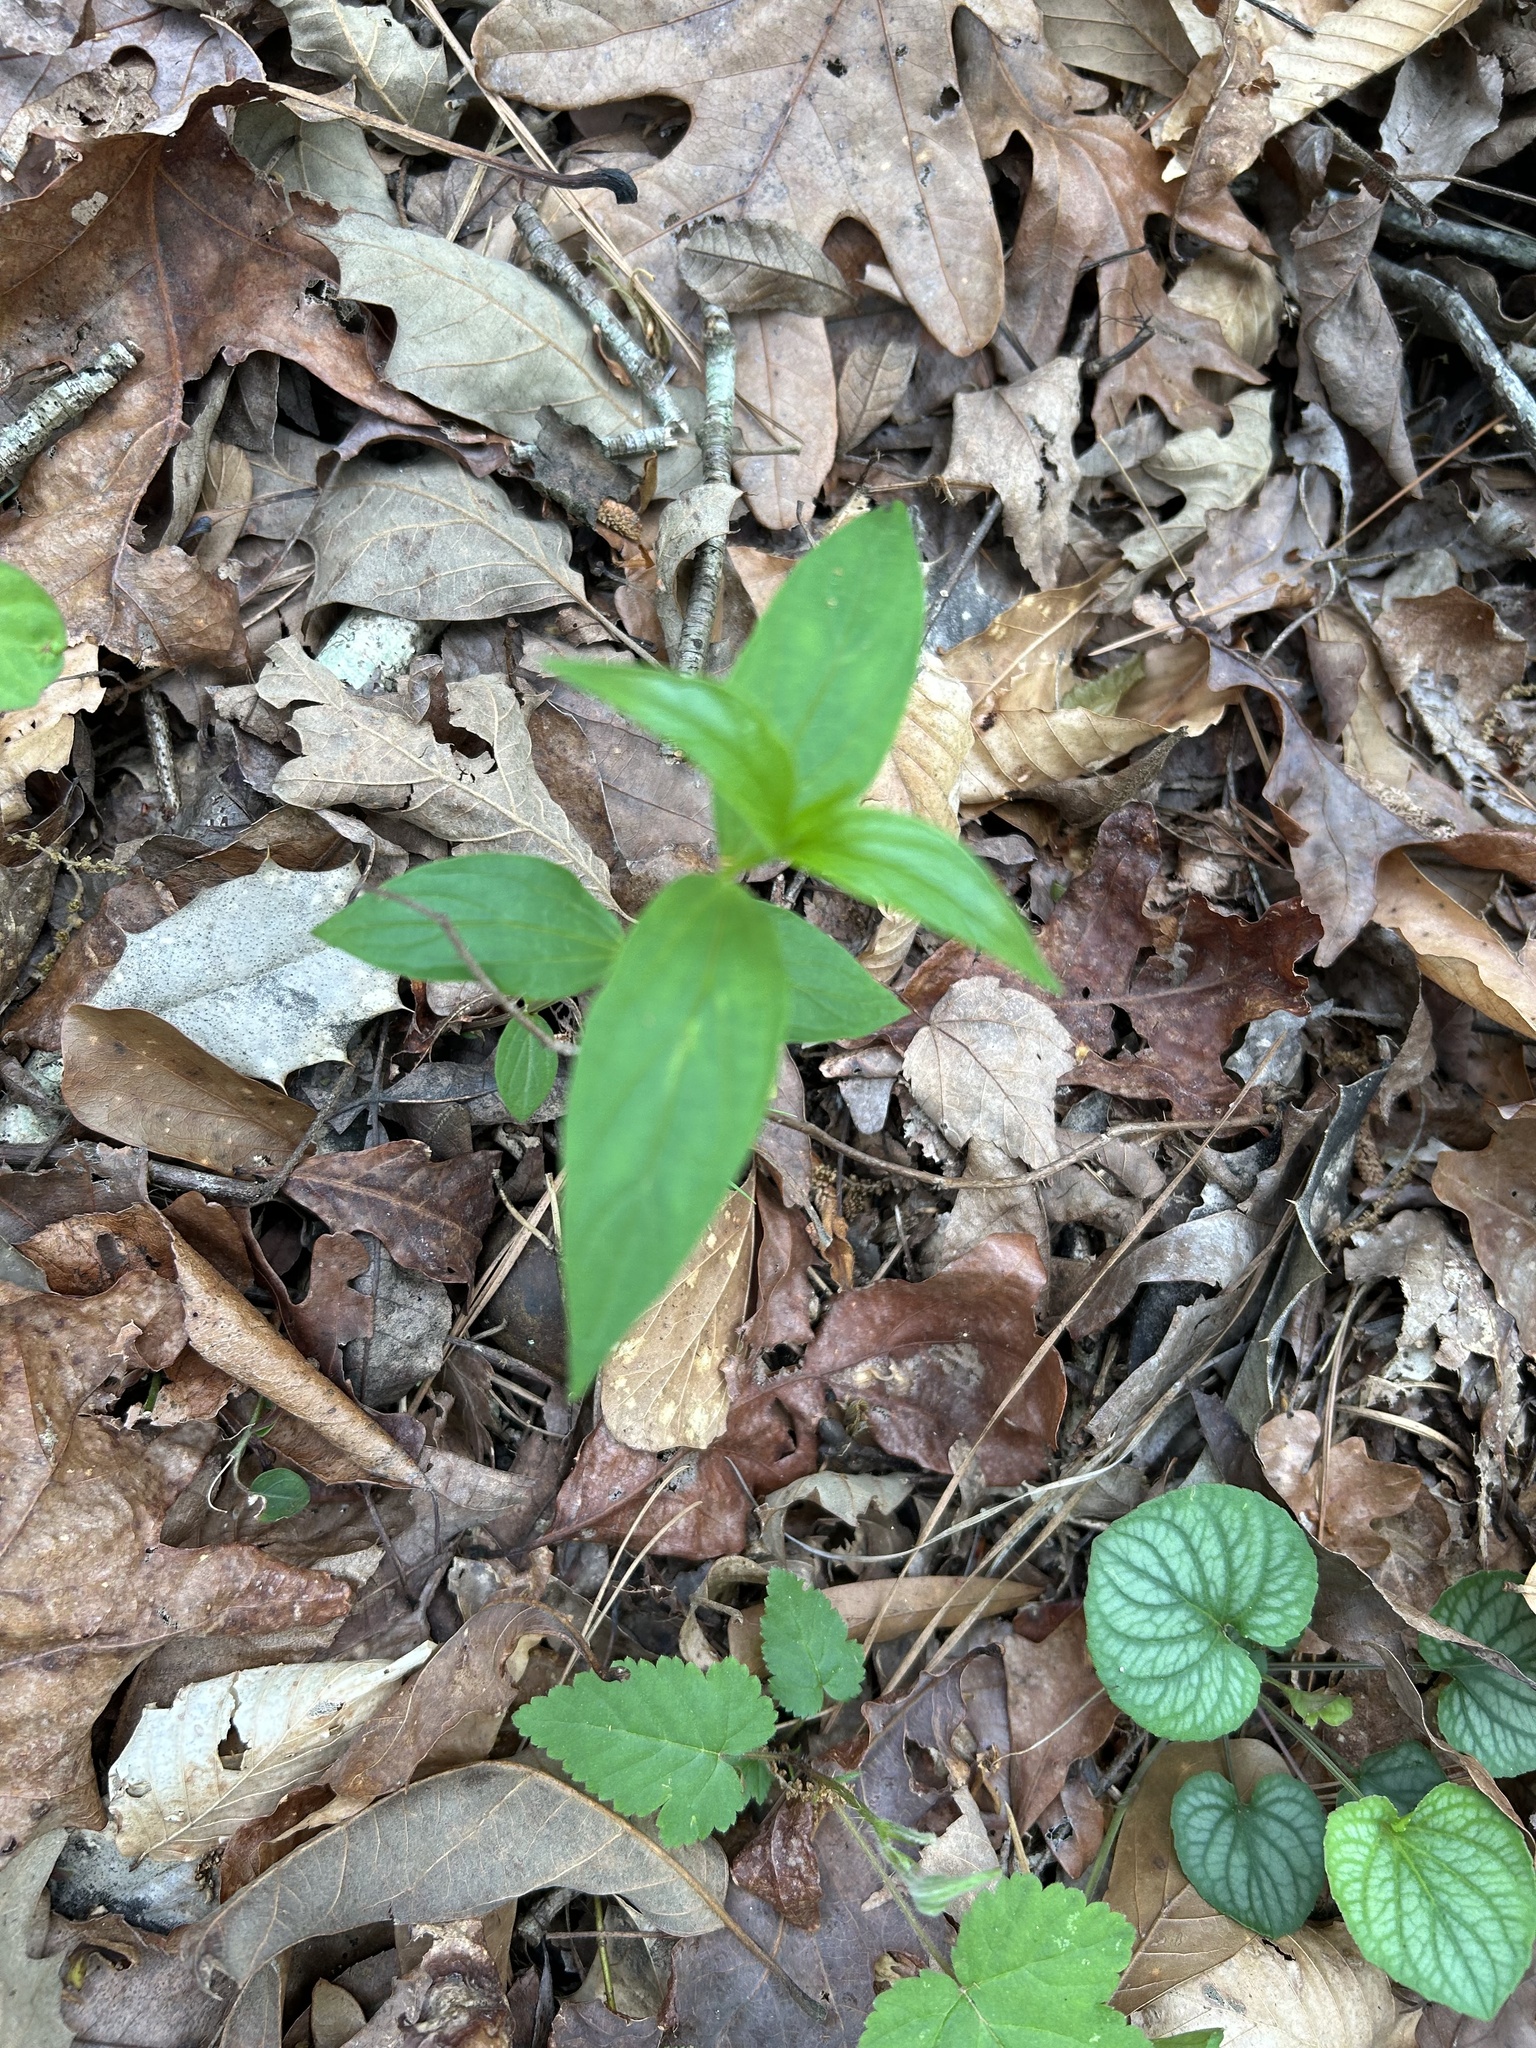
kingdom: Plantae
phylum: Tracheophyta
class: Magnoliopsida
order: Gentianales
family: Loganiaceae
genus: Spigelia
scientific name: Spigelia marilandica
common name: Indian-pink
